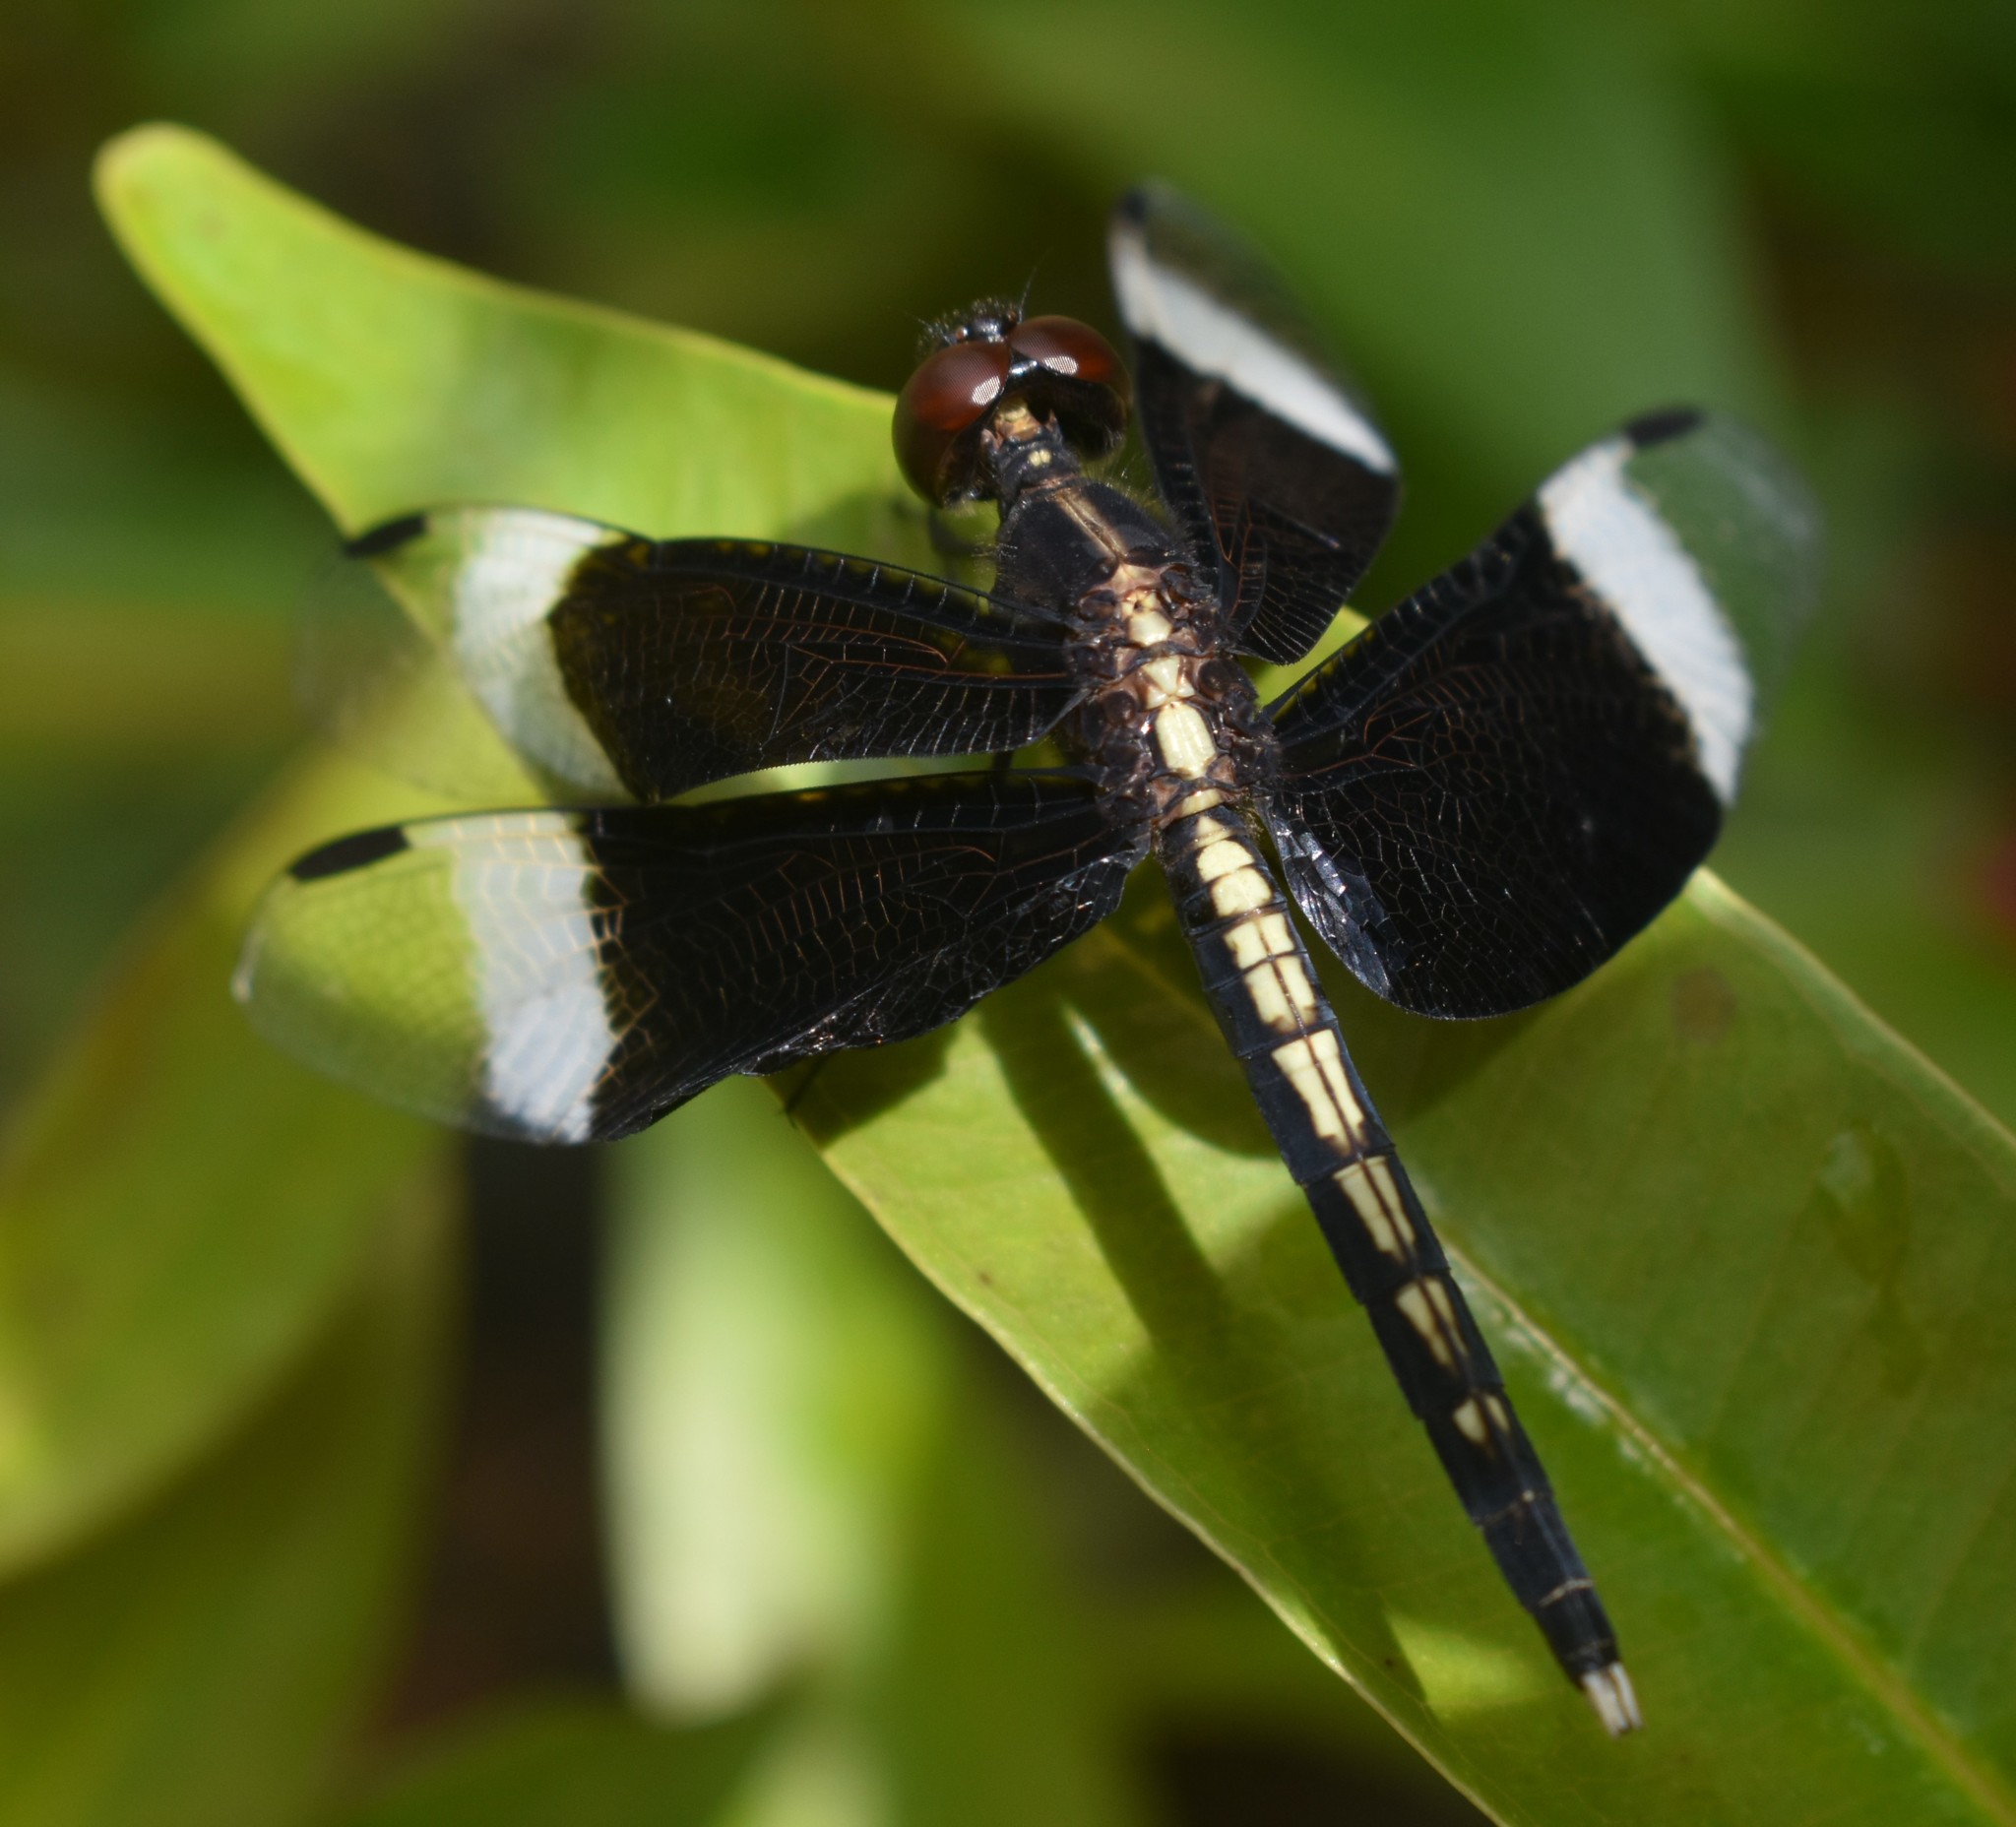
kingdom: Animalia
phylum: Arthropoda
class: Insecta
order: Odonata
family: Libellulidae
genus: Neurothemis
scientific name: Neurothemis tullia
